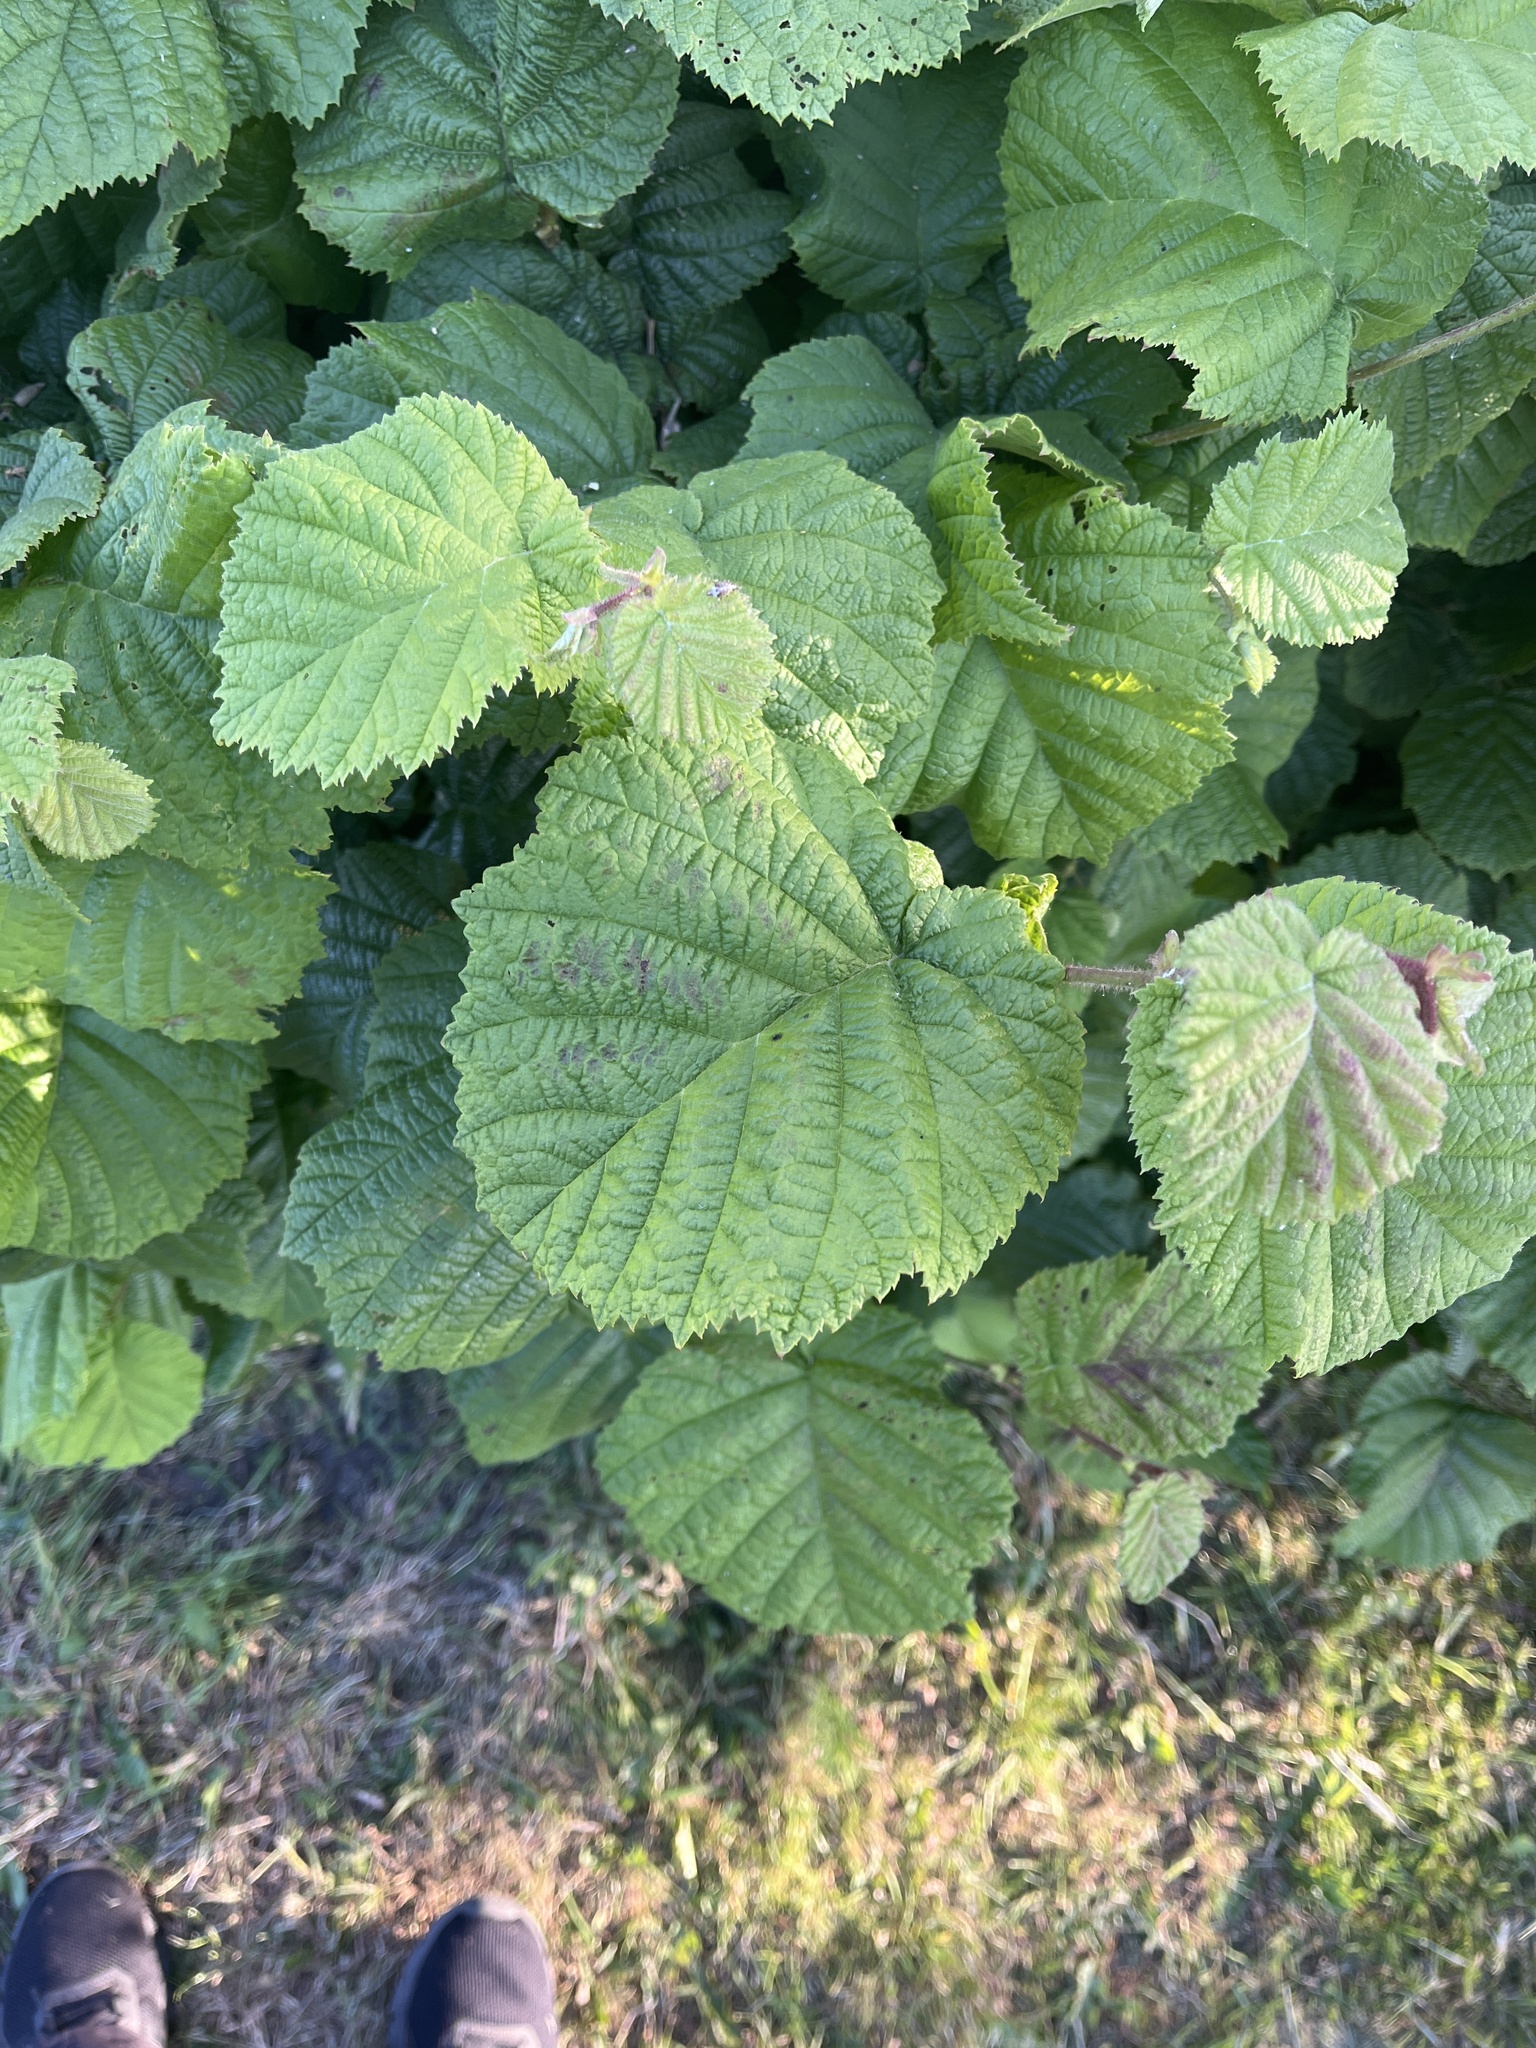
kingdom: Plantae
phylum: Tracheophyta
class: Magnoliopsida
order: Fagales
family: Betulaceae
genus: Corylus
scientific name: Corylus avellana
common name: European hazel
